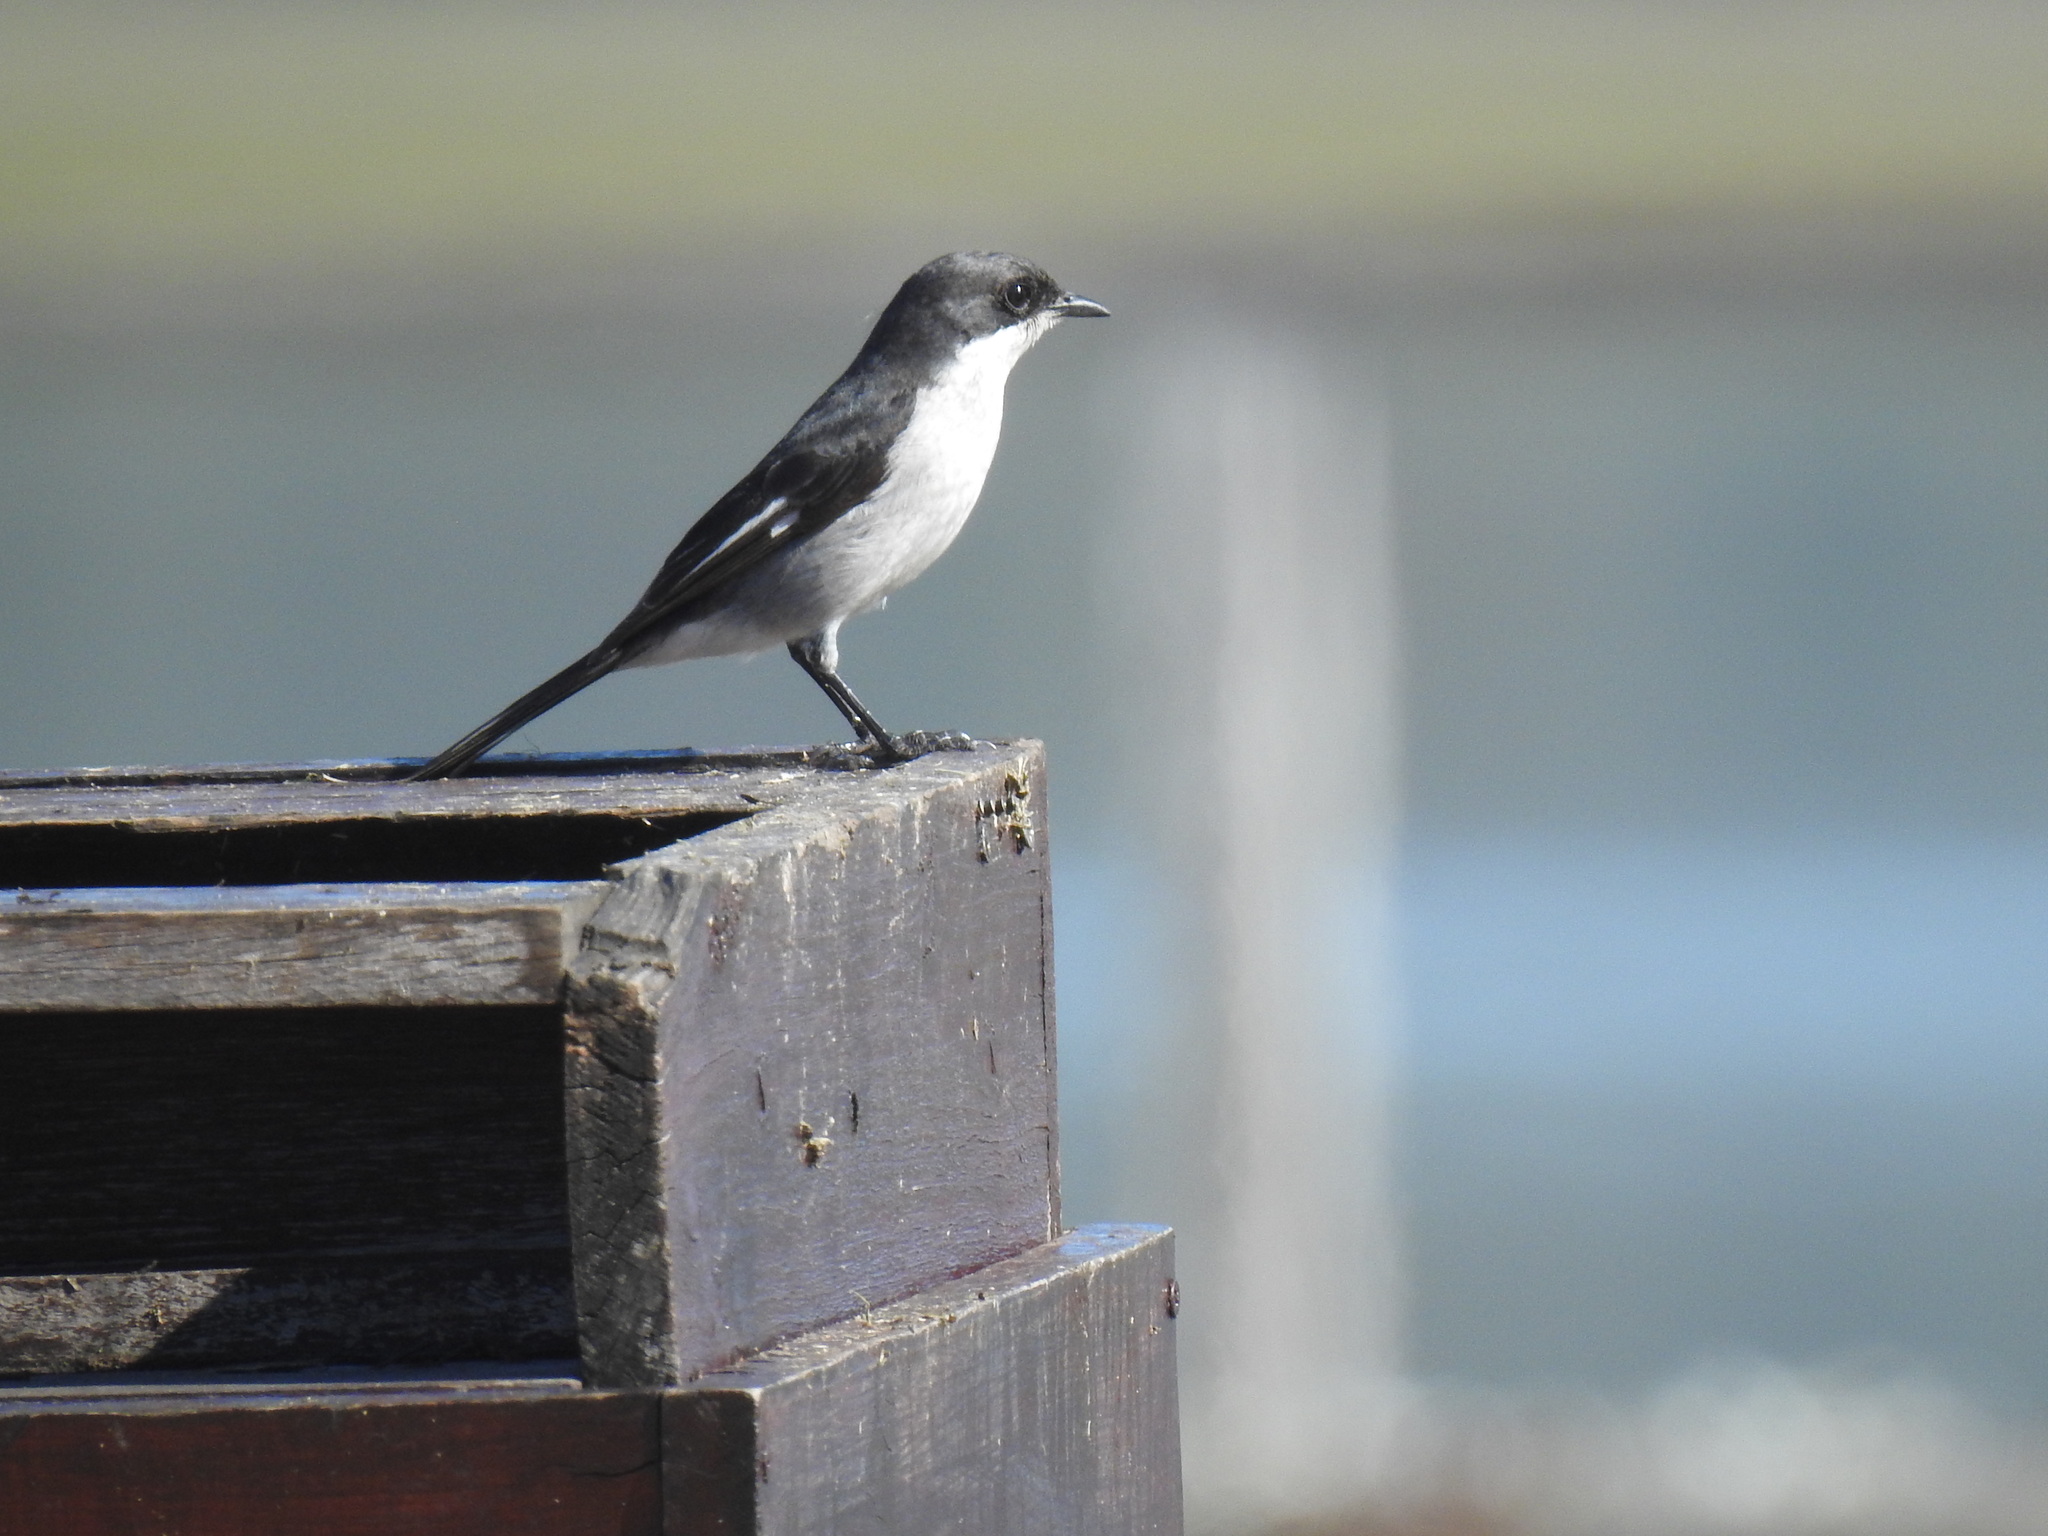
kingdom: Animalia
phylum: Chordata
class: Aves
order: Passeriformes
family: Muscicapidae
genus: Sigelus
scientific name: Sigelus silens
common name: Fiscal flycatcher
